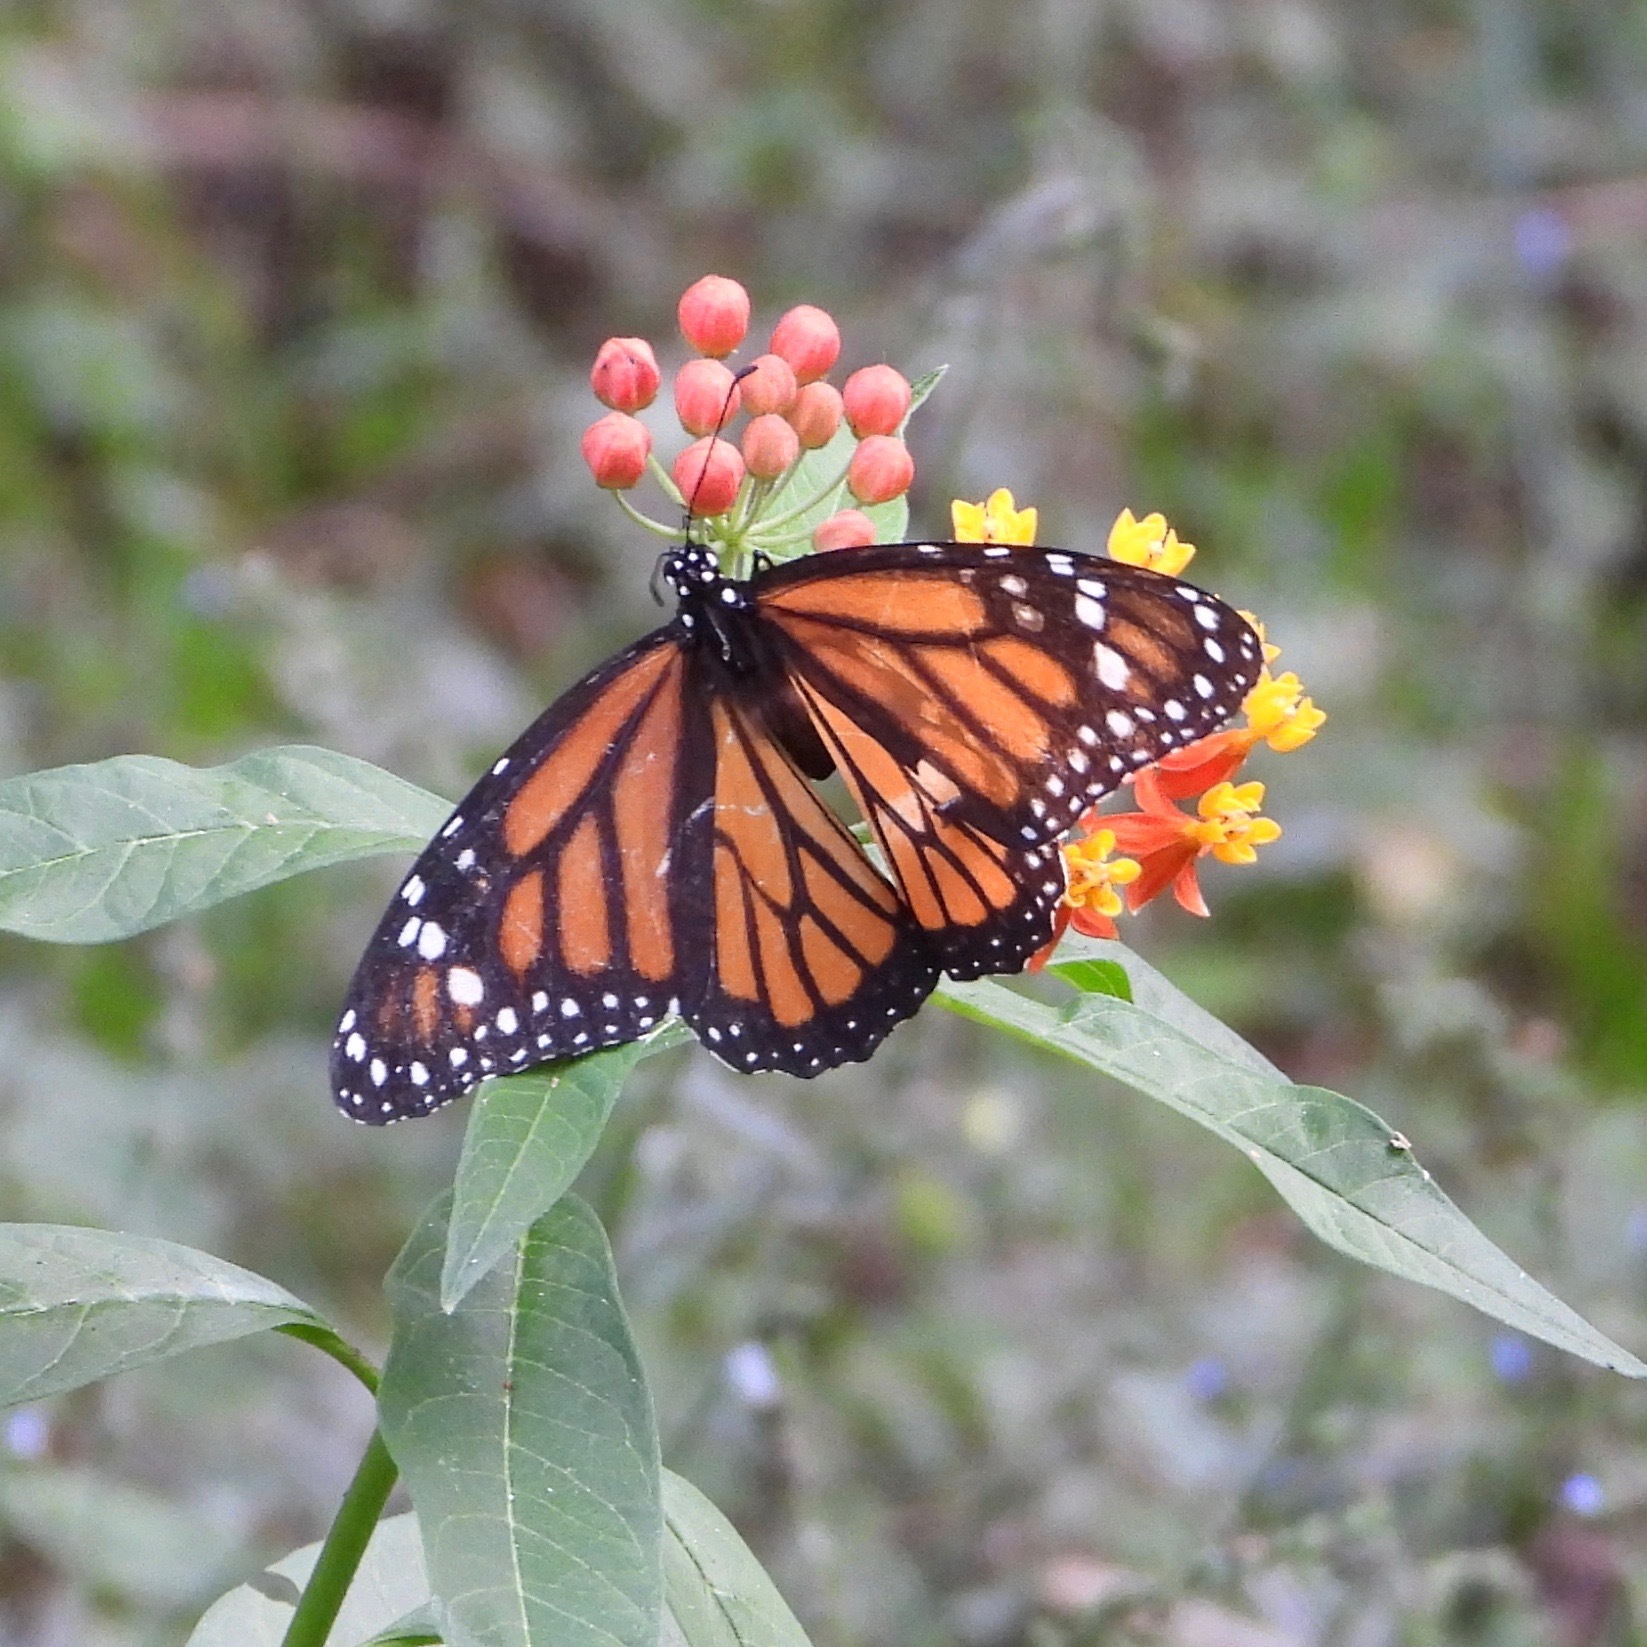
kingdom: Animalia
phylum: Arthropoda
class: Insecta
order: Lepidoptera
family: Nymphalidae
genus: Danaus
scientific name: Danaus plexippus
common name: Monarch
